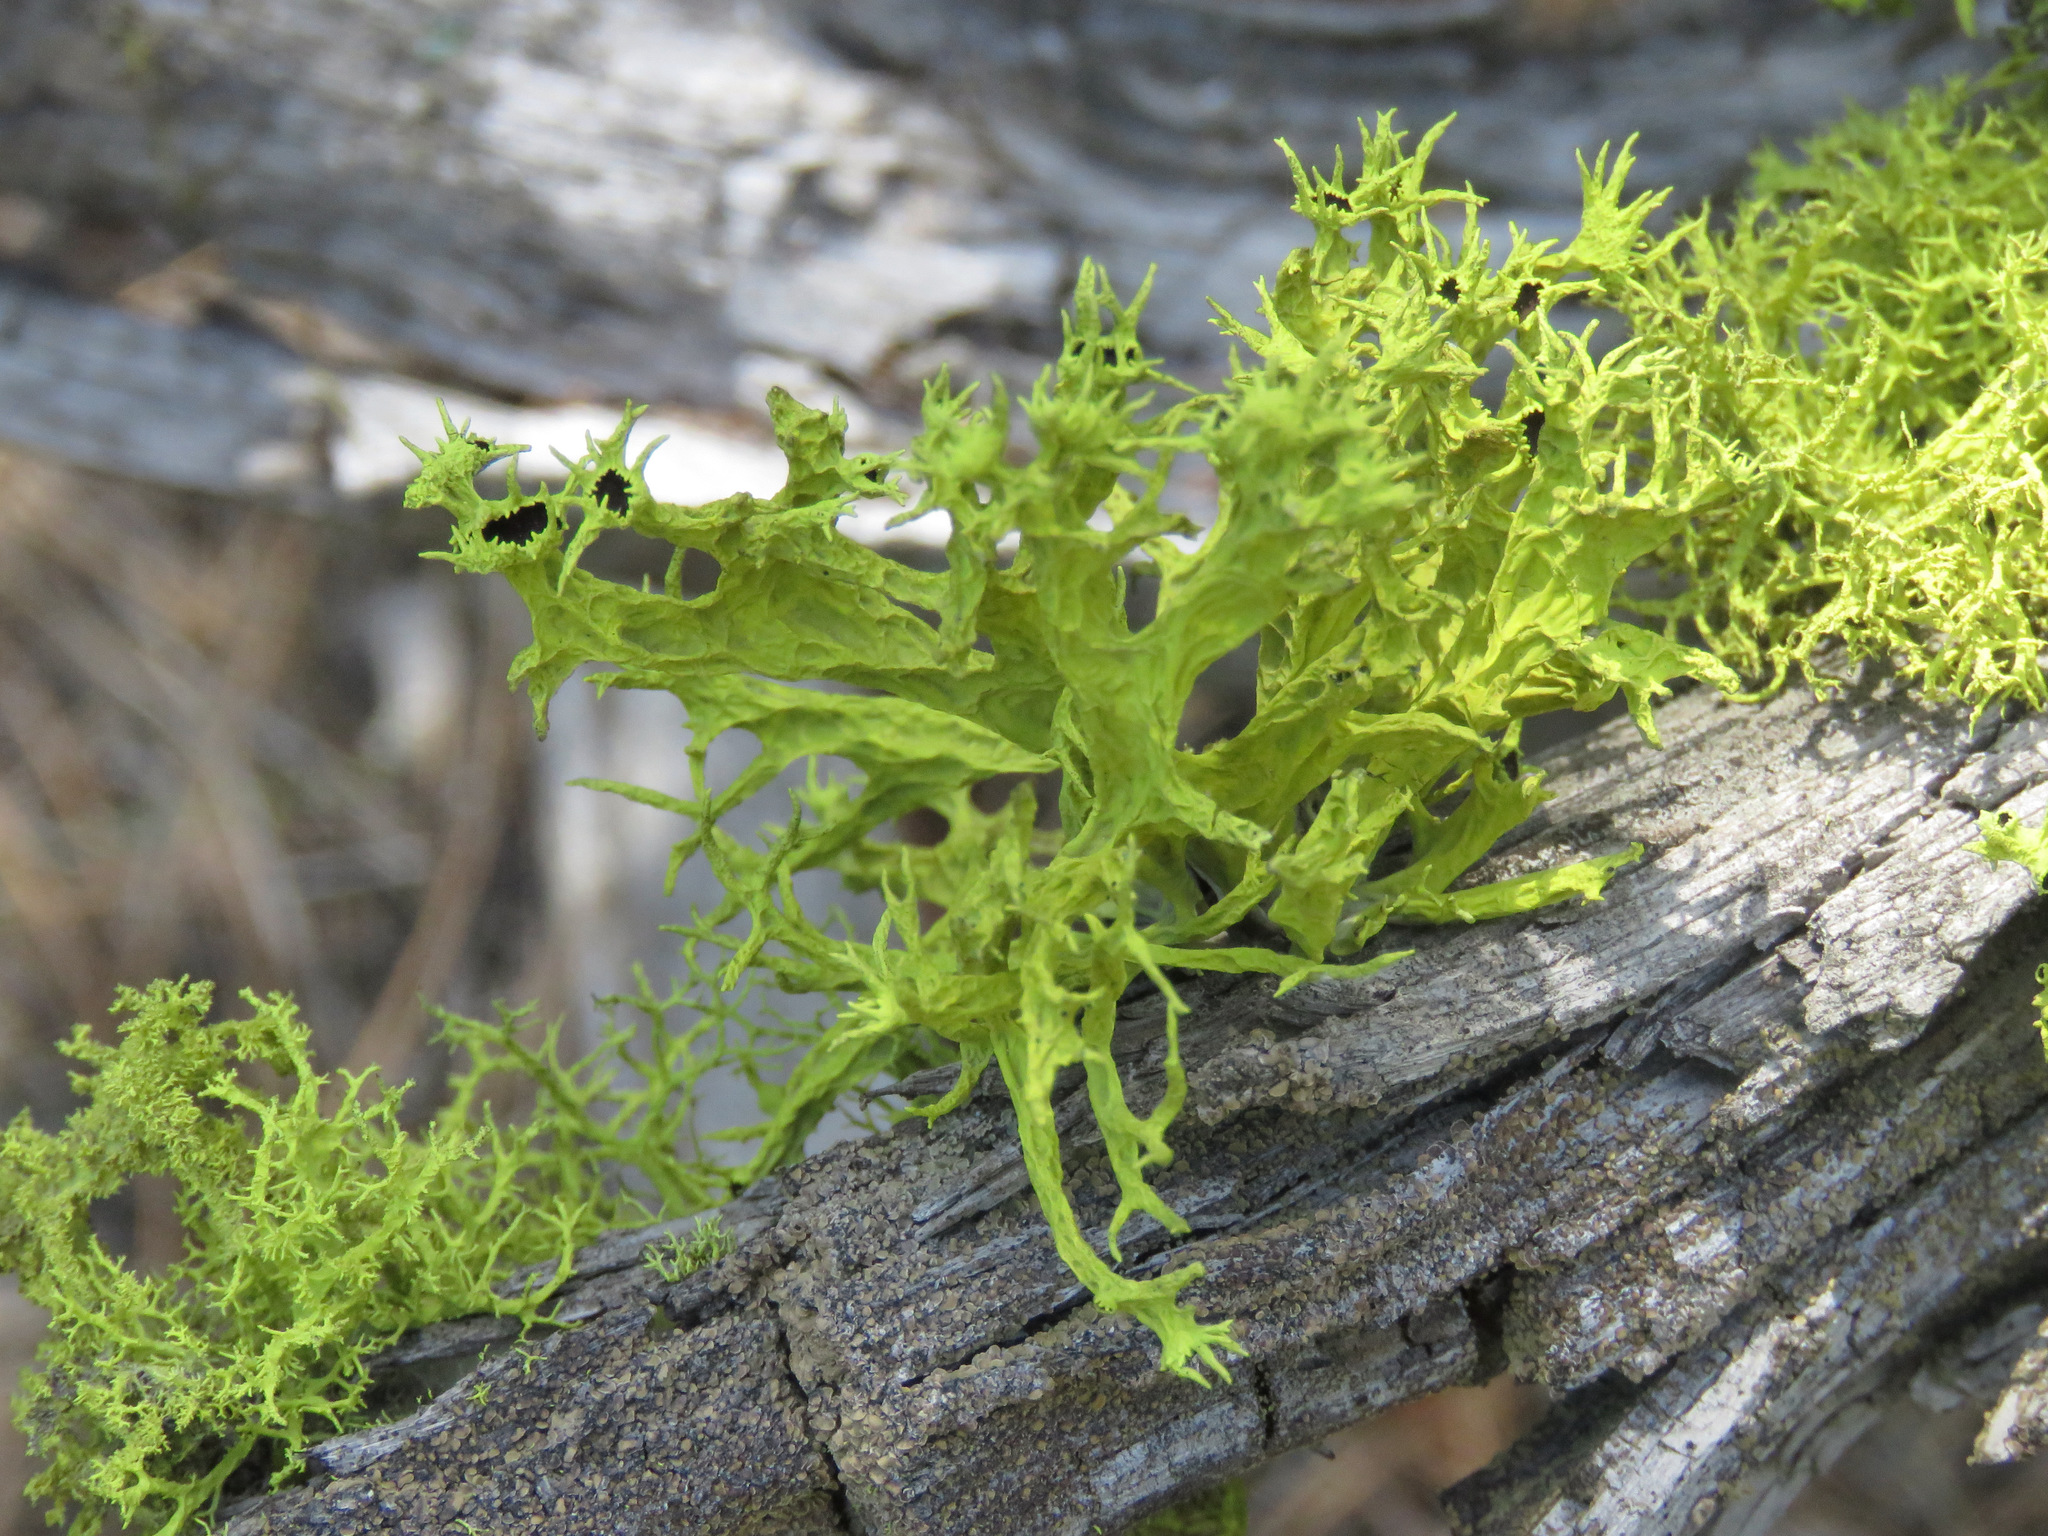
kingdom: Fungi
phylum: Ascomycota
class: Lecanoromycetes
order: Lecanorales
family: Parmeliaceae
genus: Letharia
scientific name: Letharia columbiana
